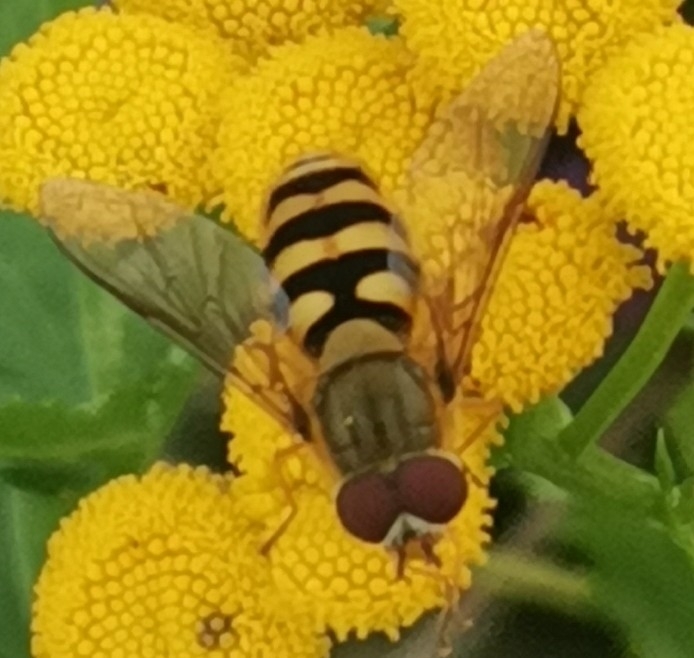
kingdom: Animalia
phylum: Arthropoda
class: Insecta
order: Diptera
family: Syrphidae
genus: Syrphus
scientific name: Syrphus
